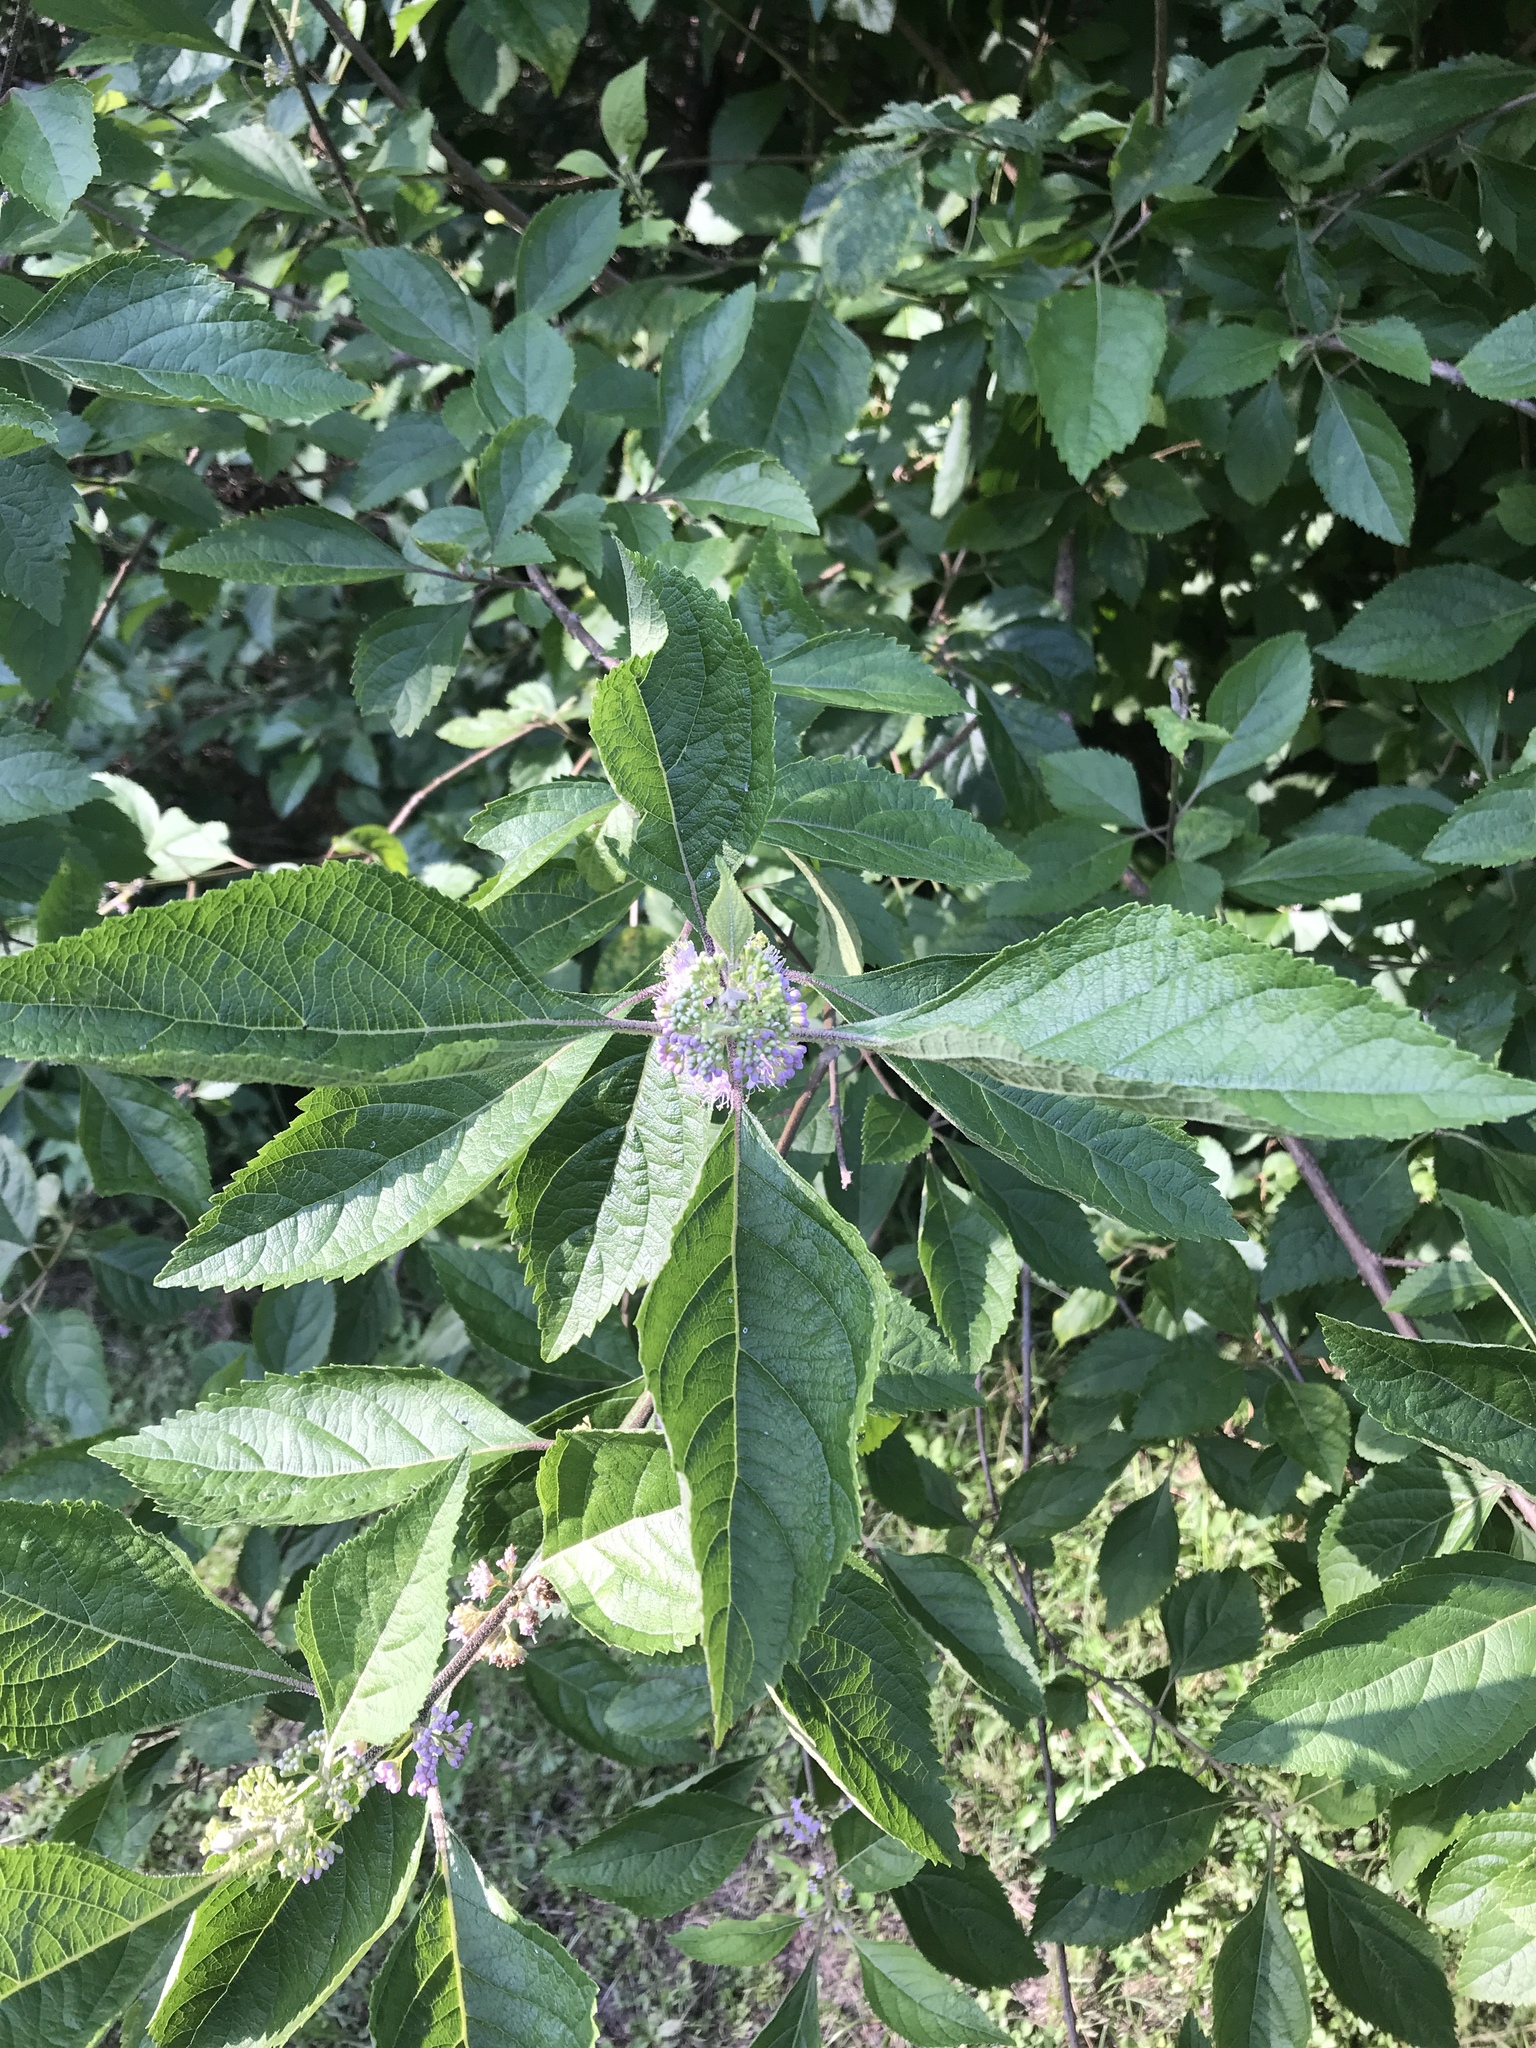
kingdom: Plantae
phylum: Tracheophyta
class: Magnoliopsida
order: Lamiales
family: Lamiaceae
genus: Callicarpa
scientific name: Callicarpa americana
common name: American beautyberry
